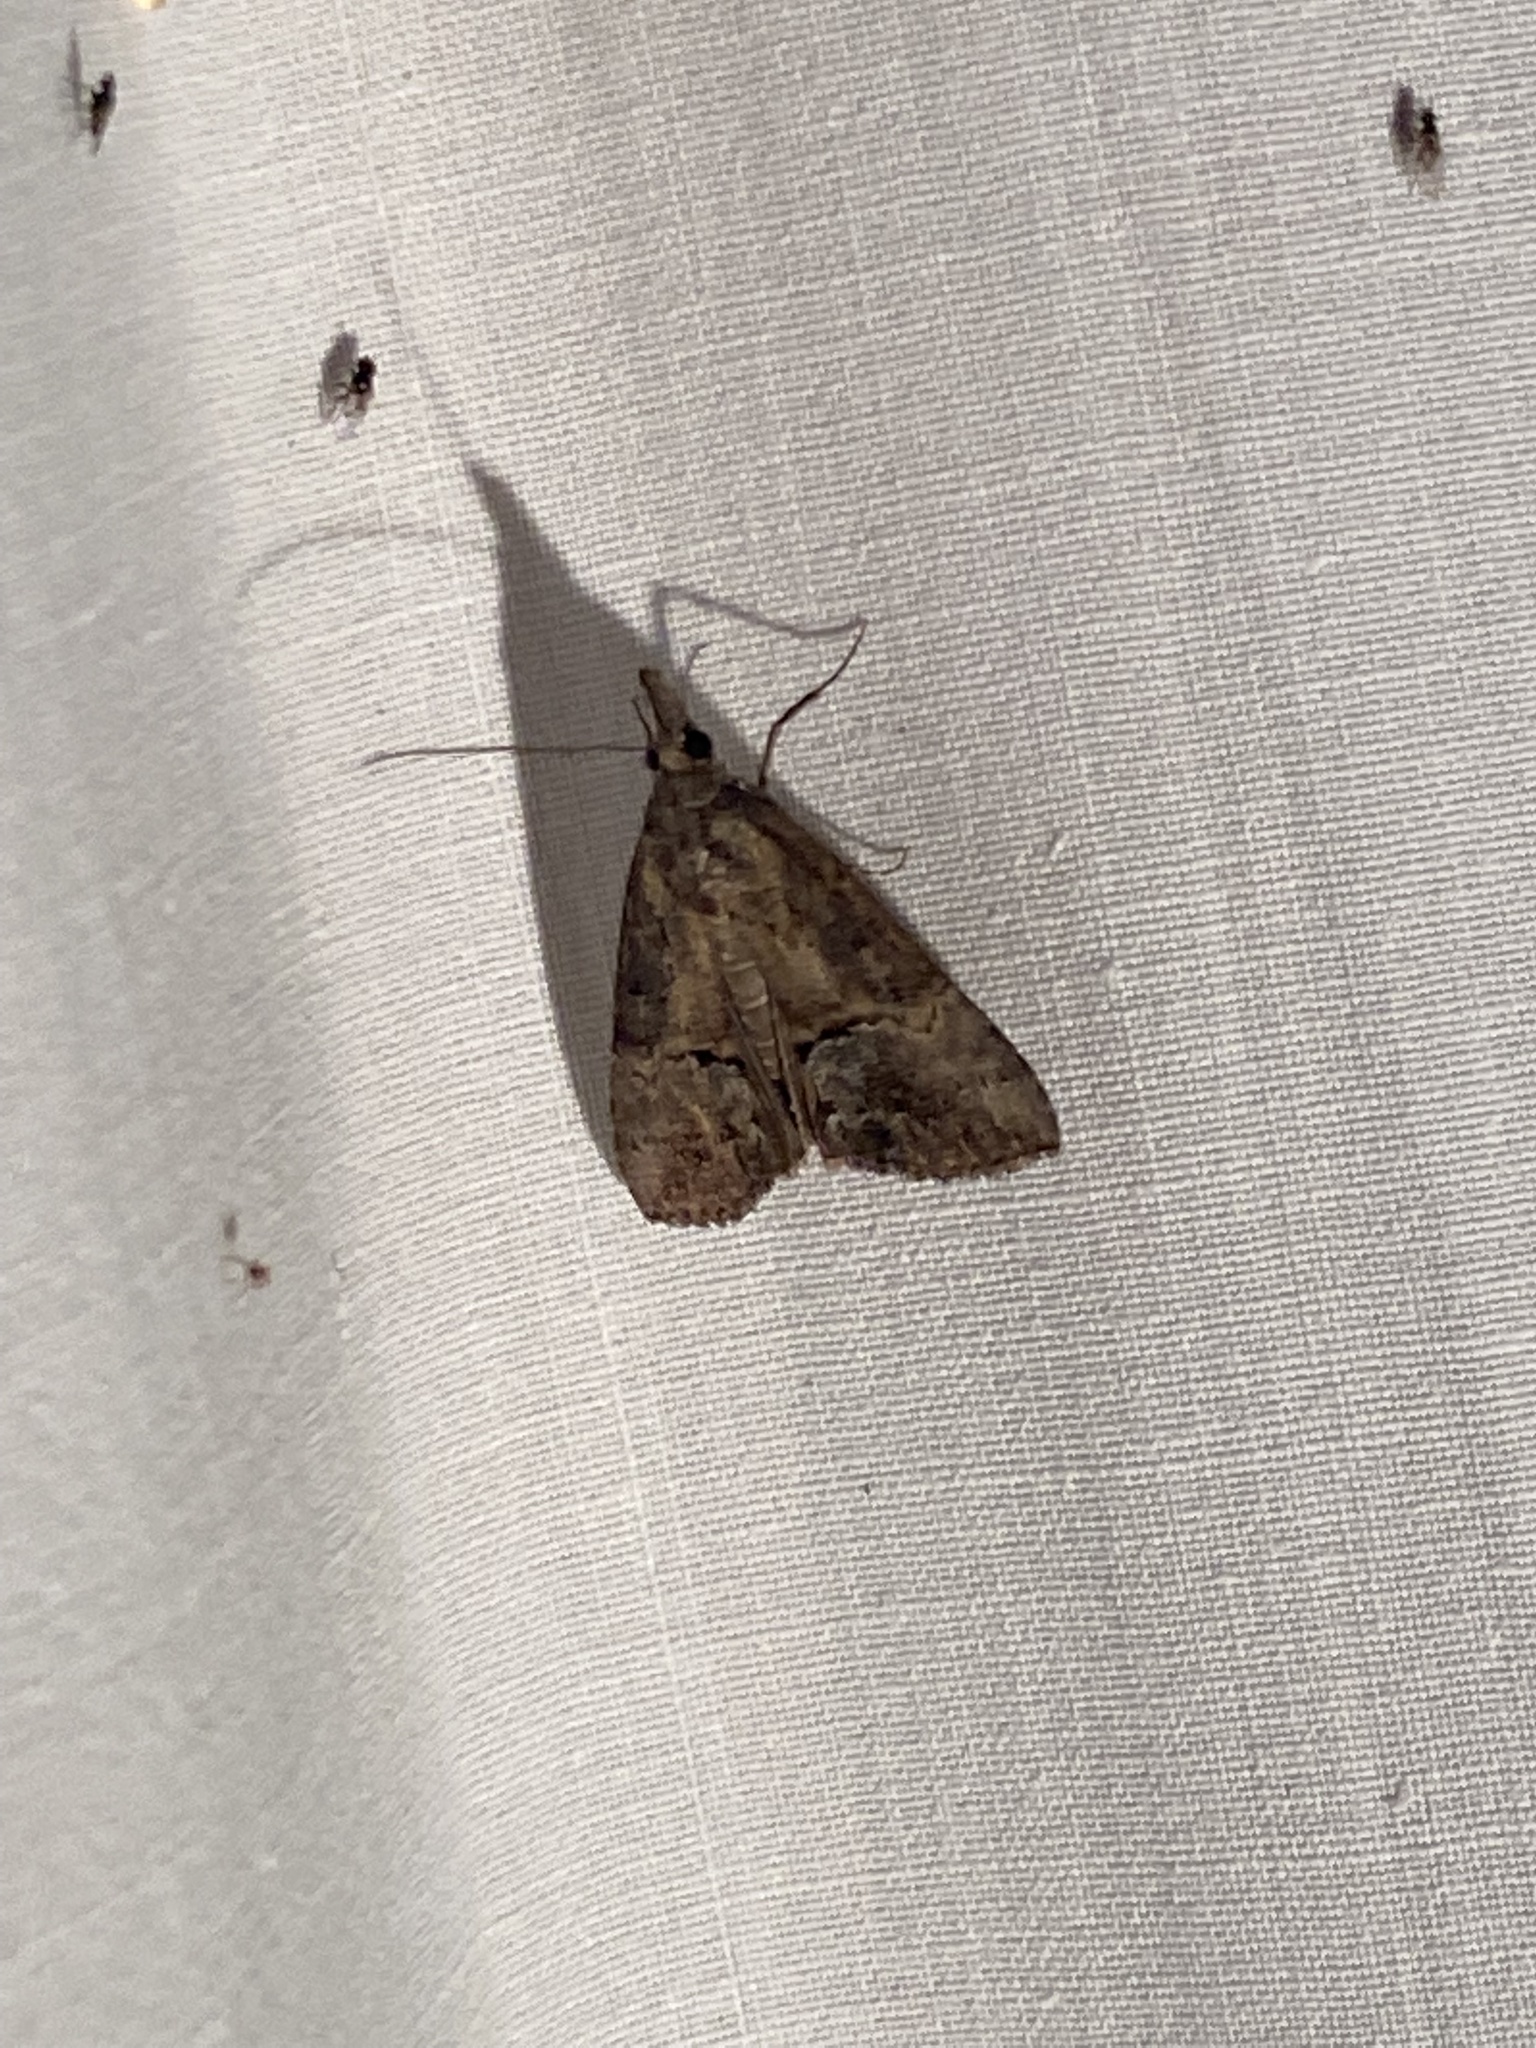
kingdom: Animalia
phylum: Arthropoda
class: Insecta
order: Lepidoptera
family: Erebidae
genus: Hypena
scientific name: Hypena scabra
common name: Green cloverworm
